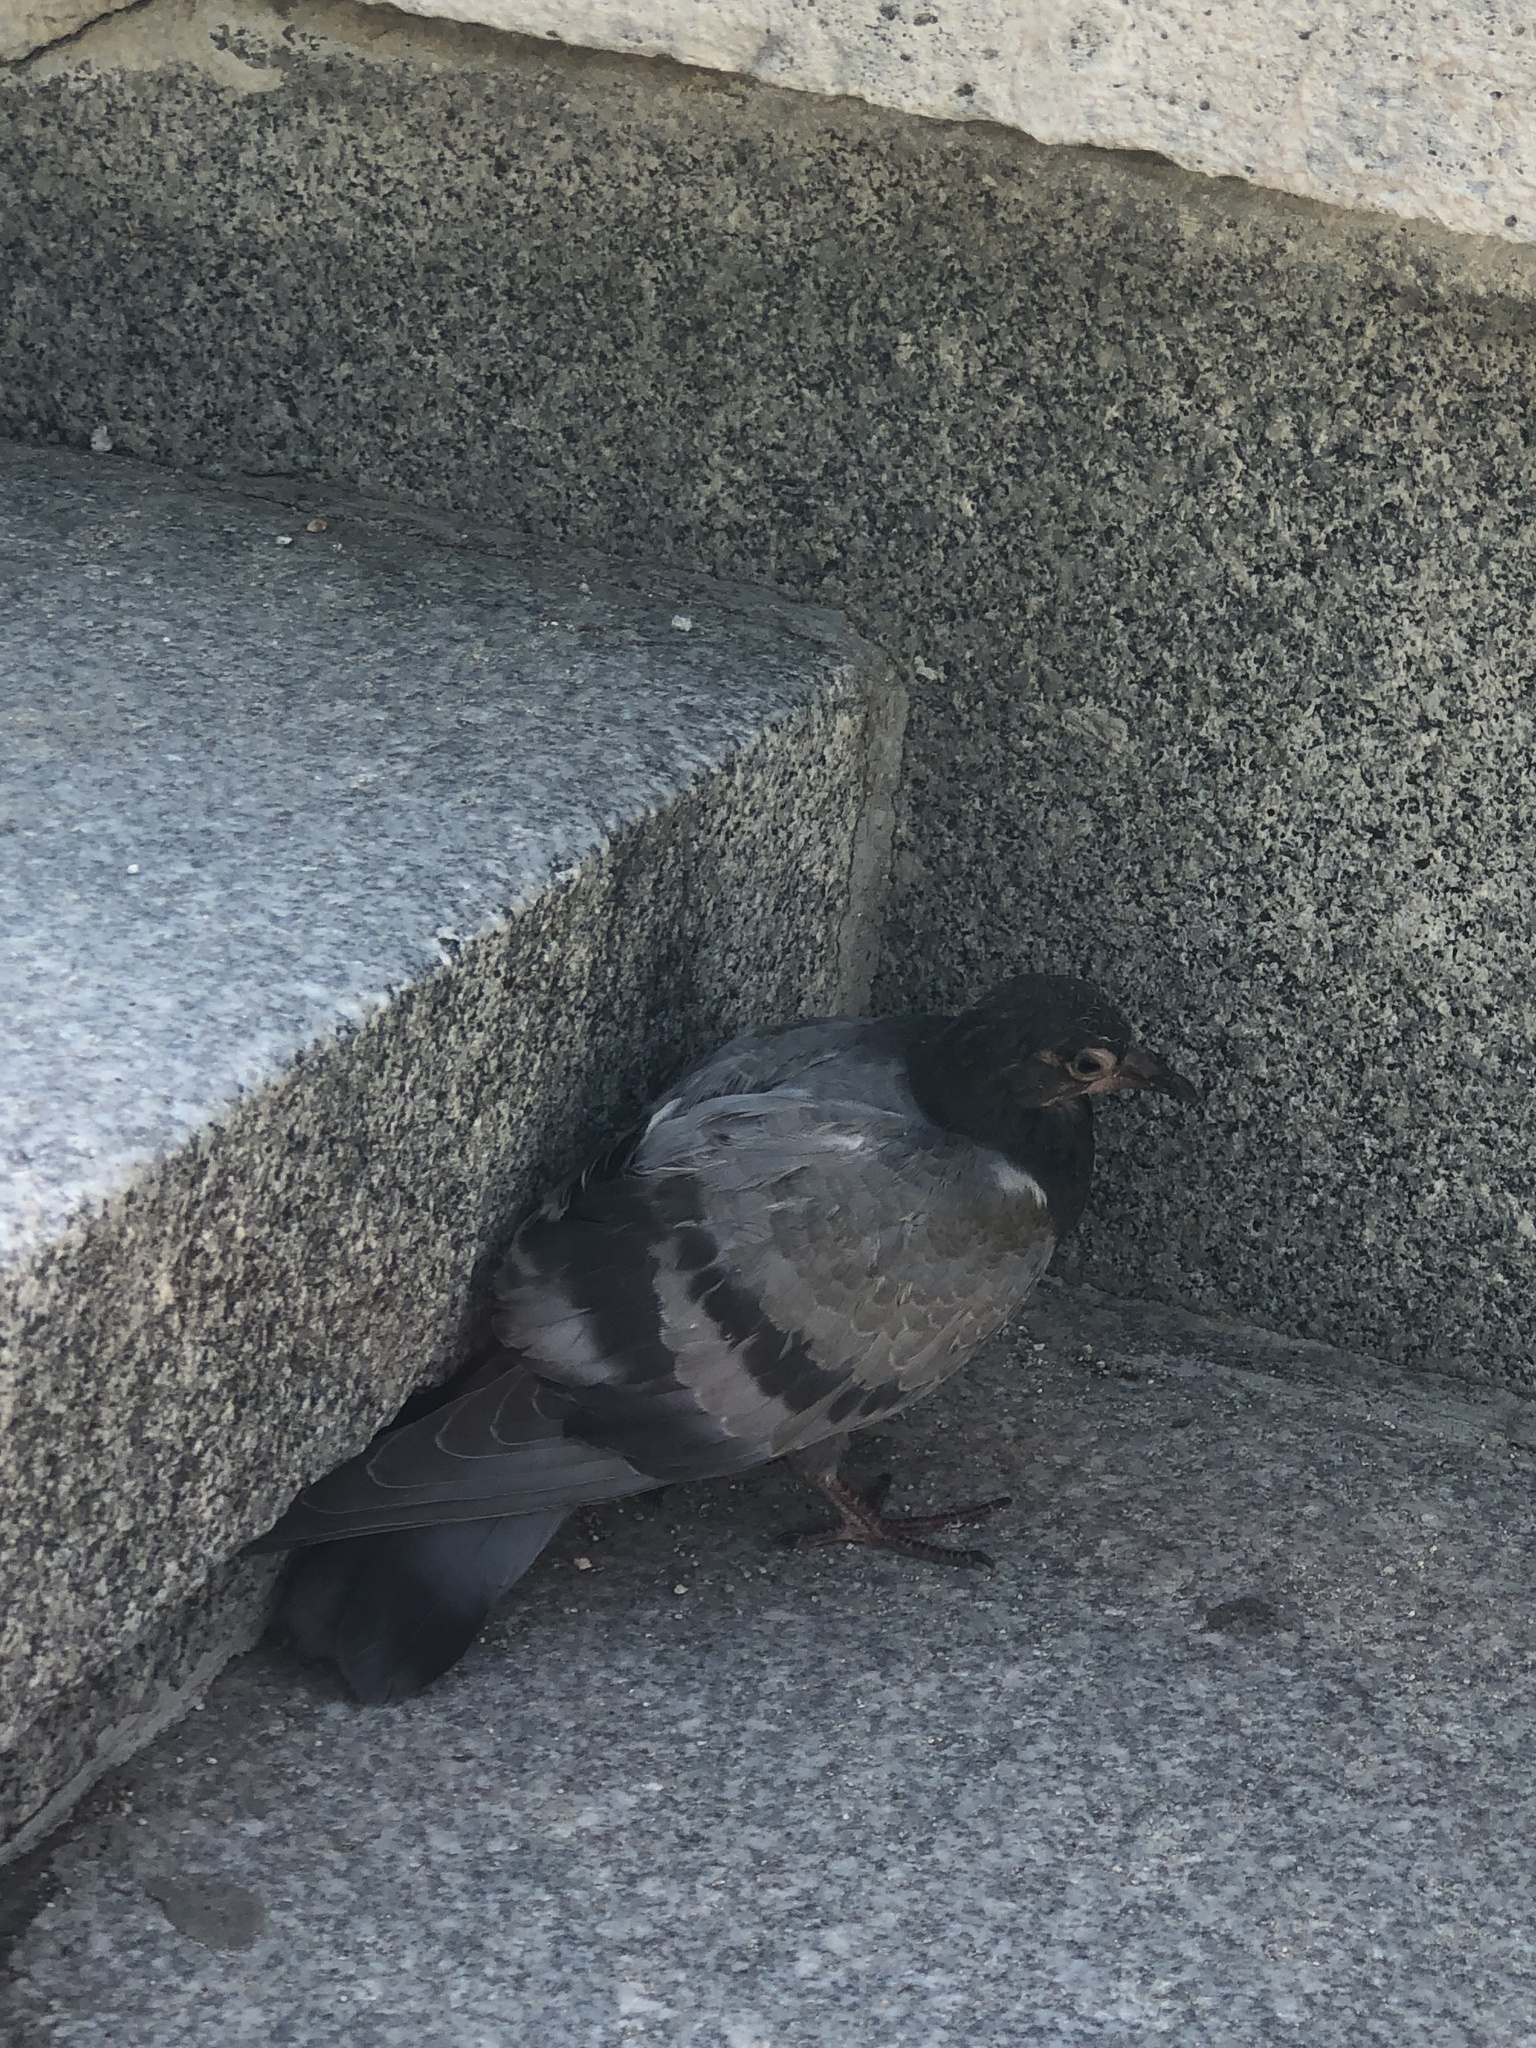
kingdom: Animalia
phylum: Chordata
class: Aves
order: Columbiformes
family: Columbidae
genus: Columba
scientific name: Columba livia
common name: Rock pigeon
